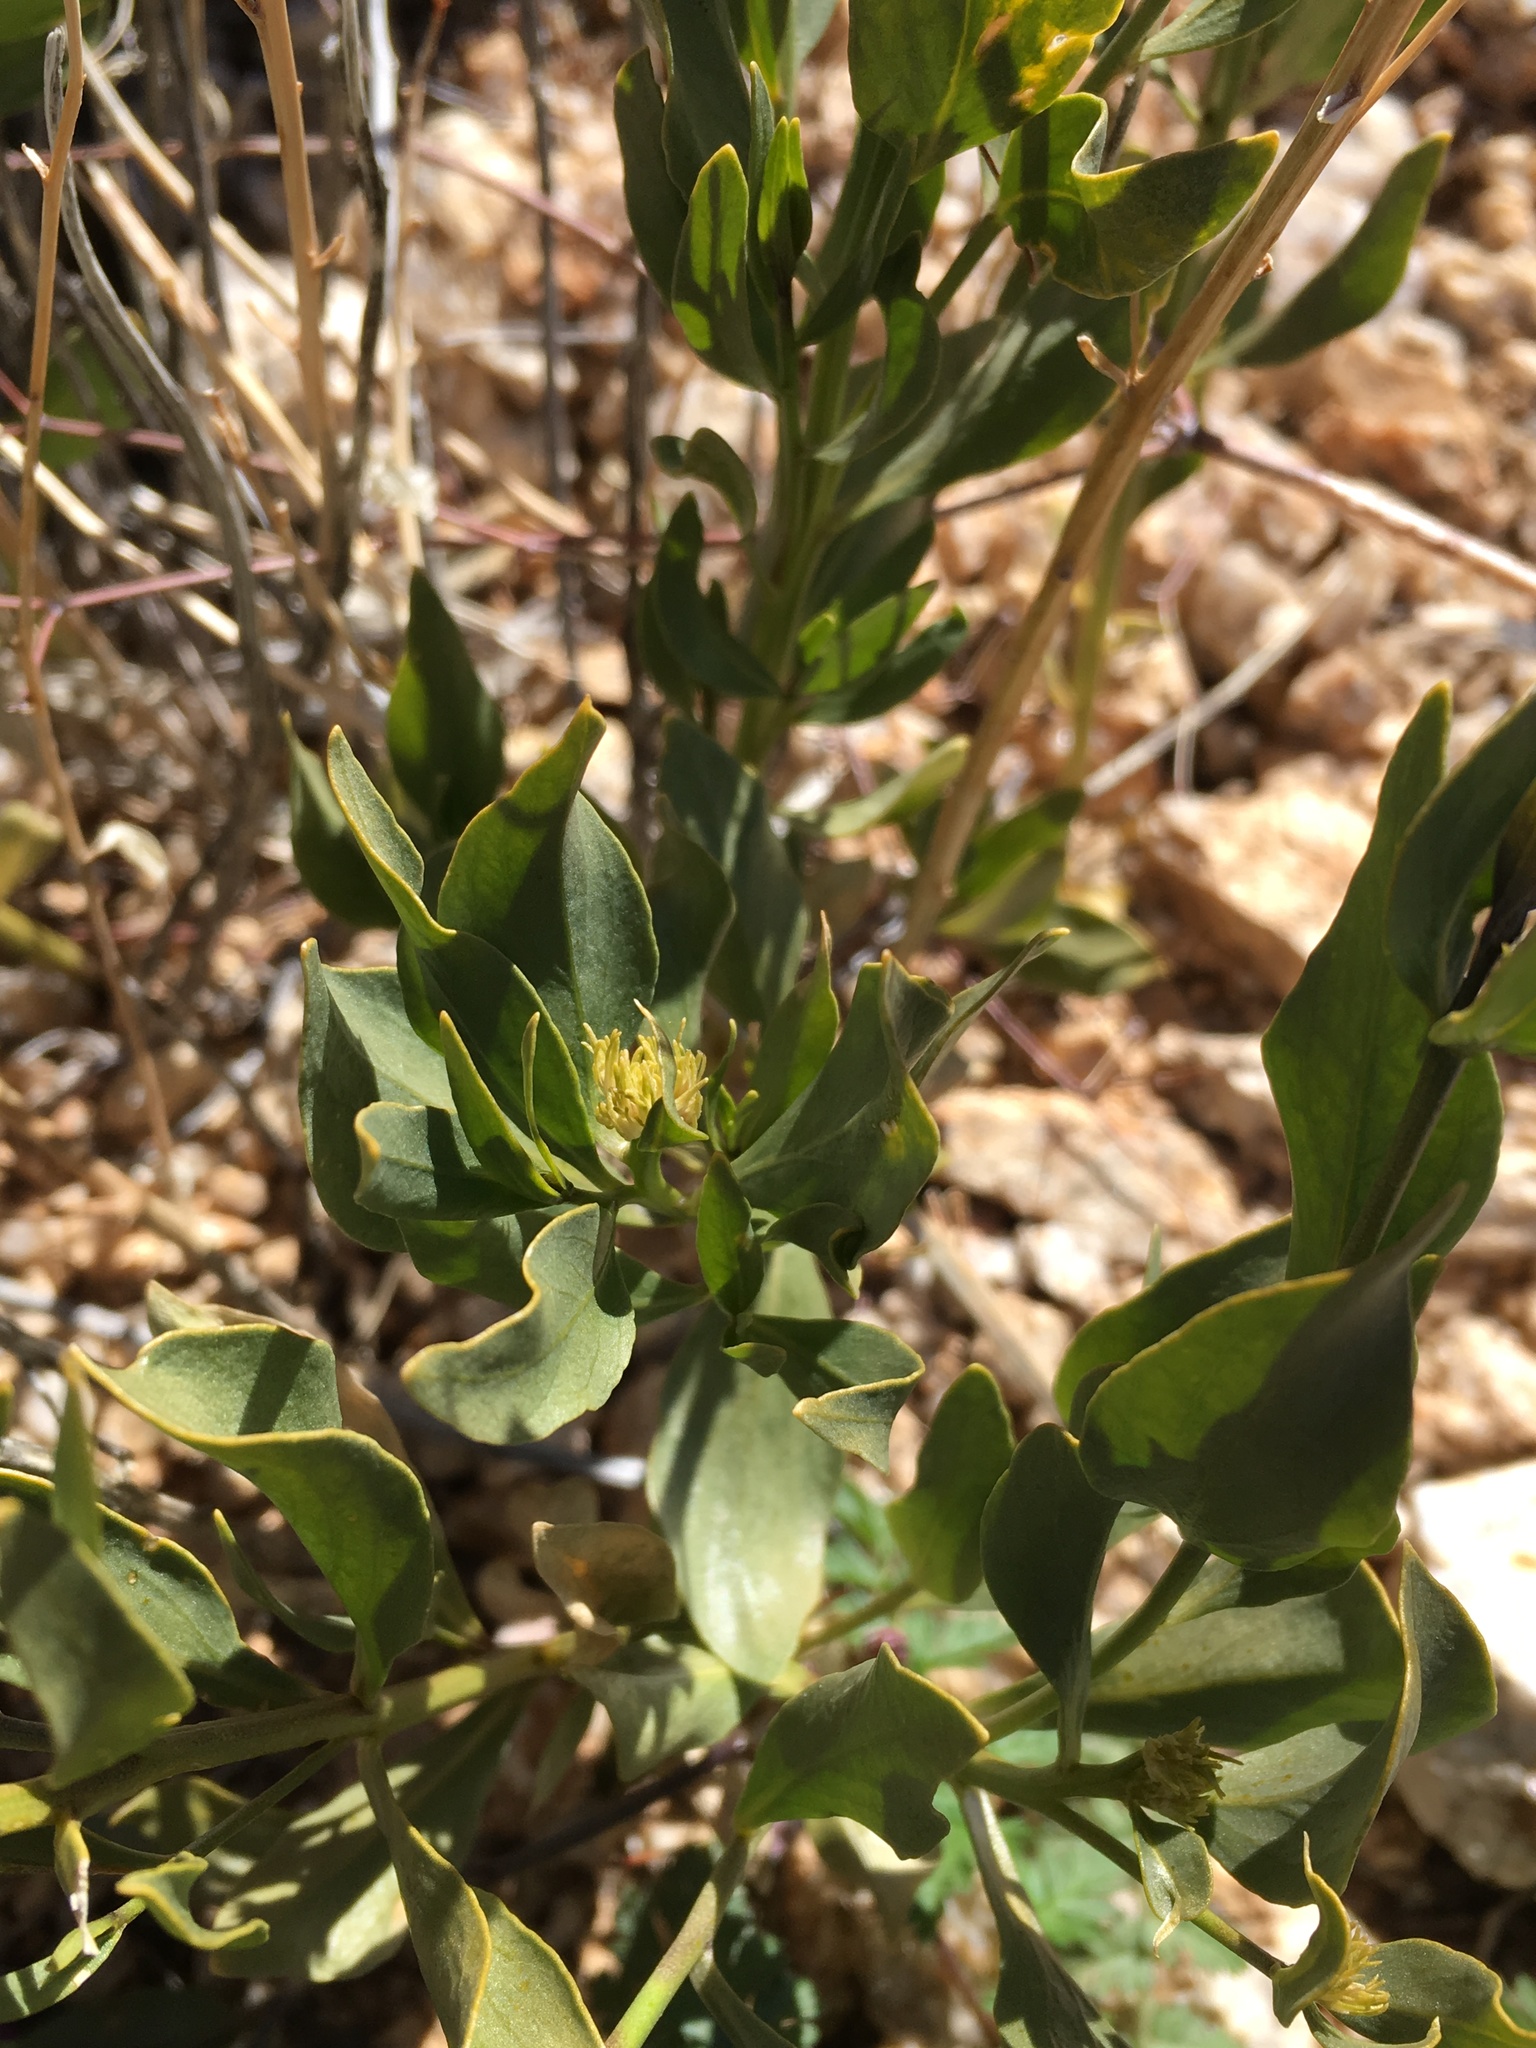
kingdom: Plantae
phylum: Tracheophyta
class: Magnoliopsida
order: Gentianales
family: Apocynaceae
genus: Amsonia
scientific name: Amsonia tomentosa
